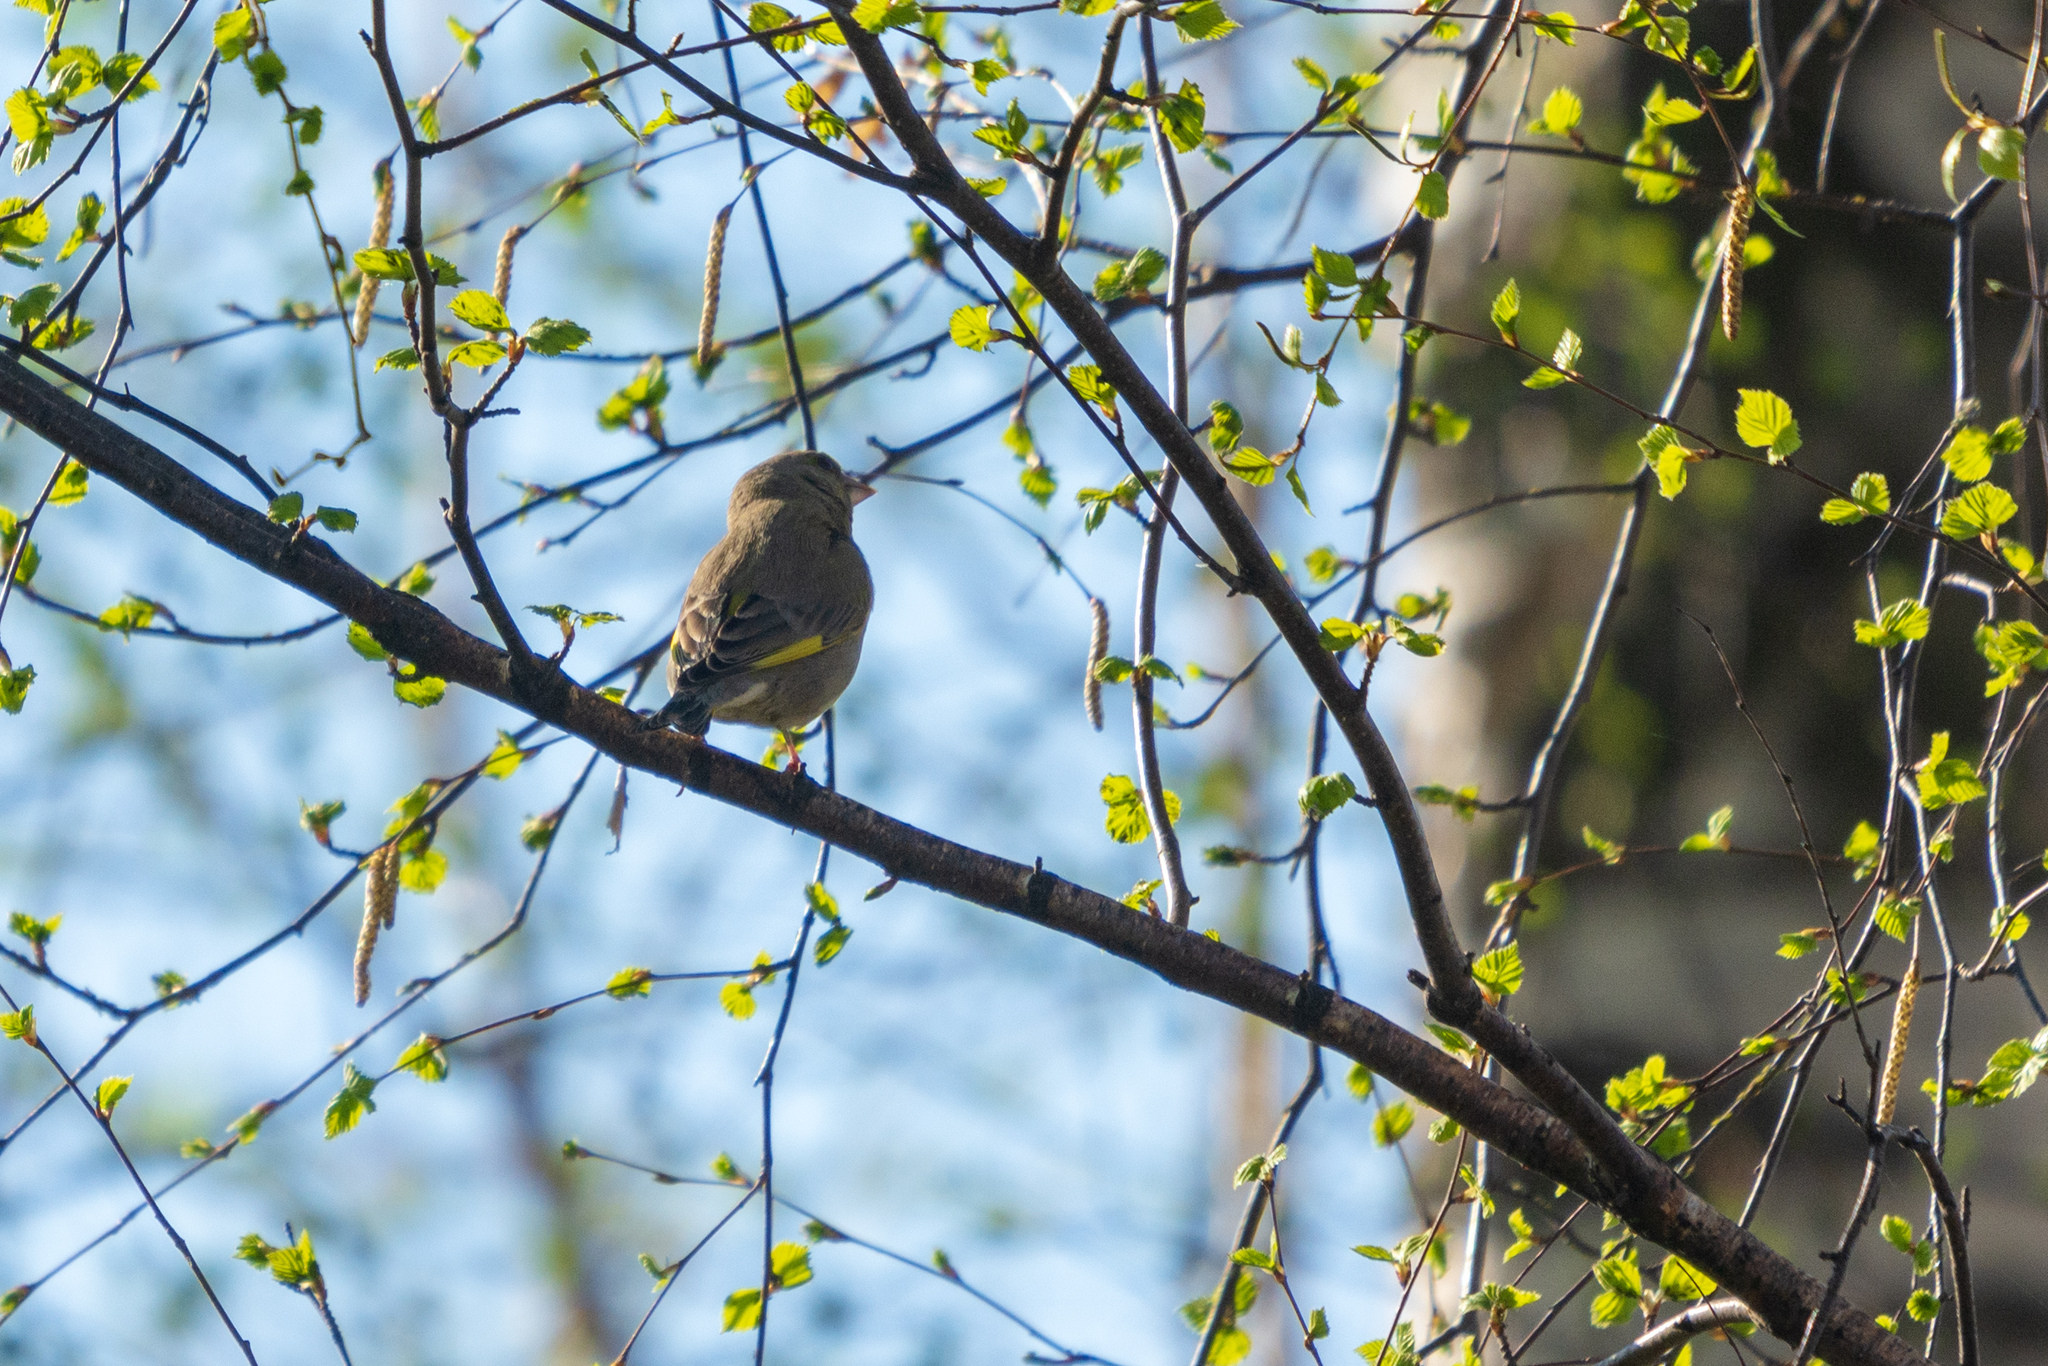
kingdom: Plantae
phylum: Tracheophyta
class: Liliopsida
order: Poales
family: Poaceae
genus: Chloris
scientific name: Chloris chloris
